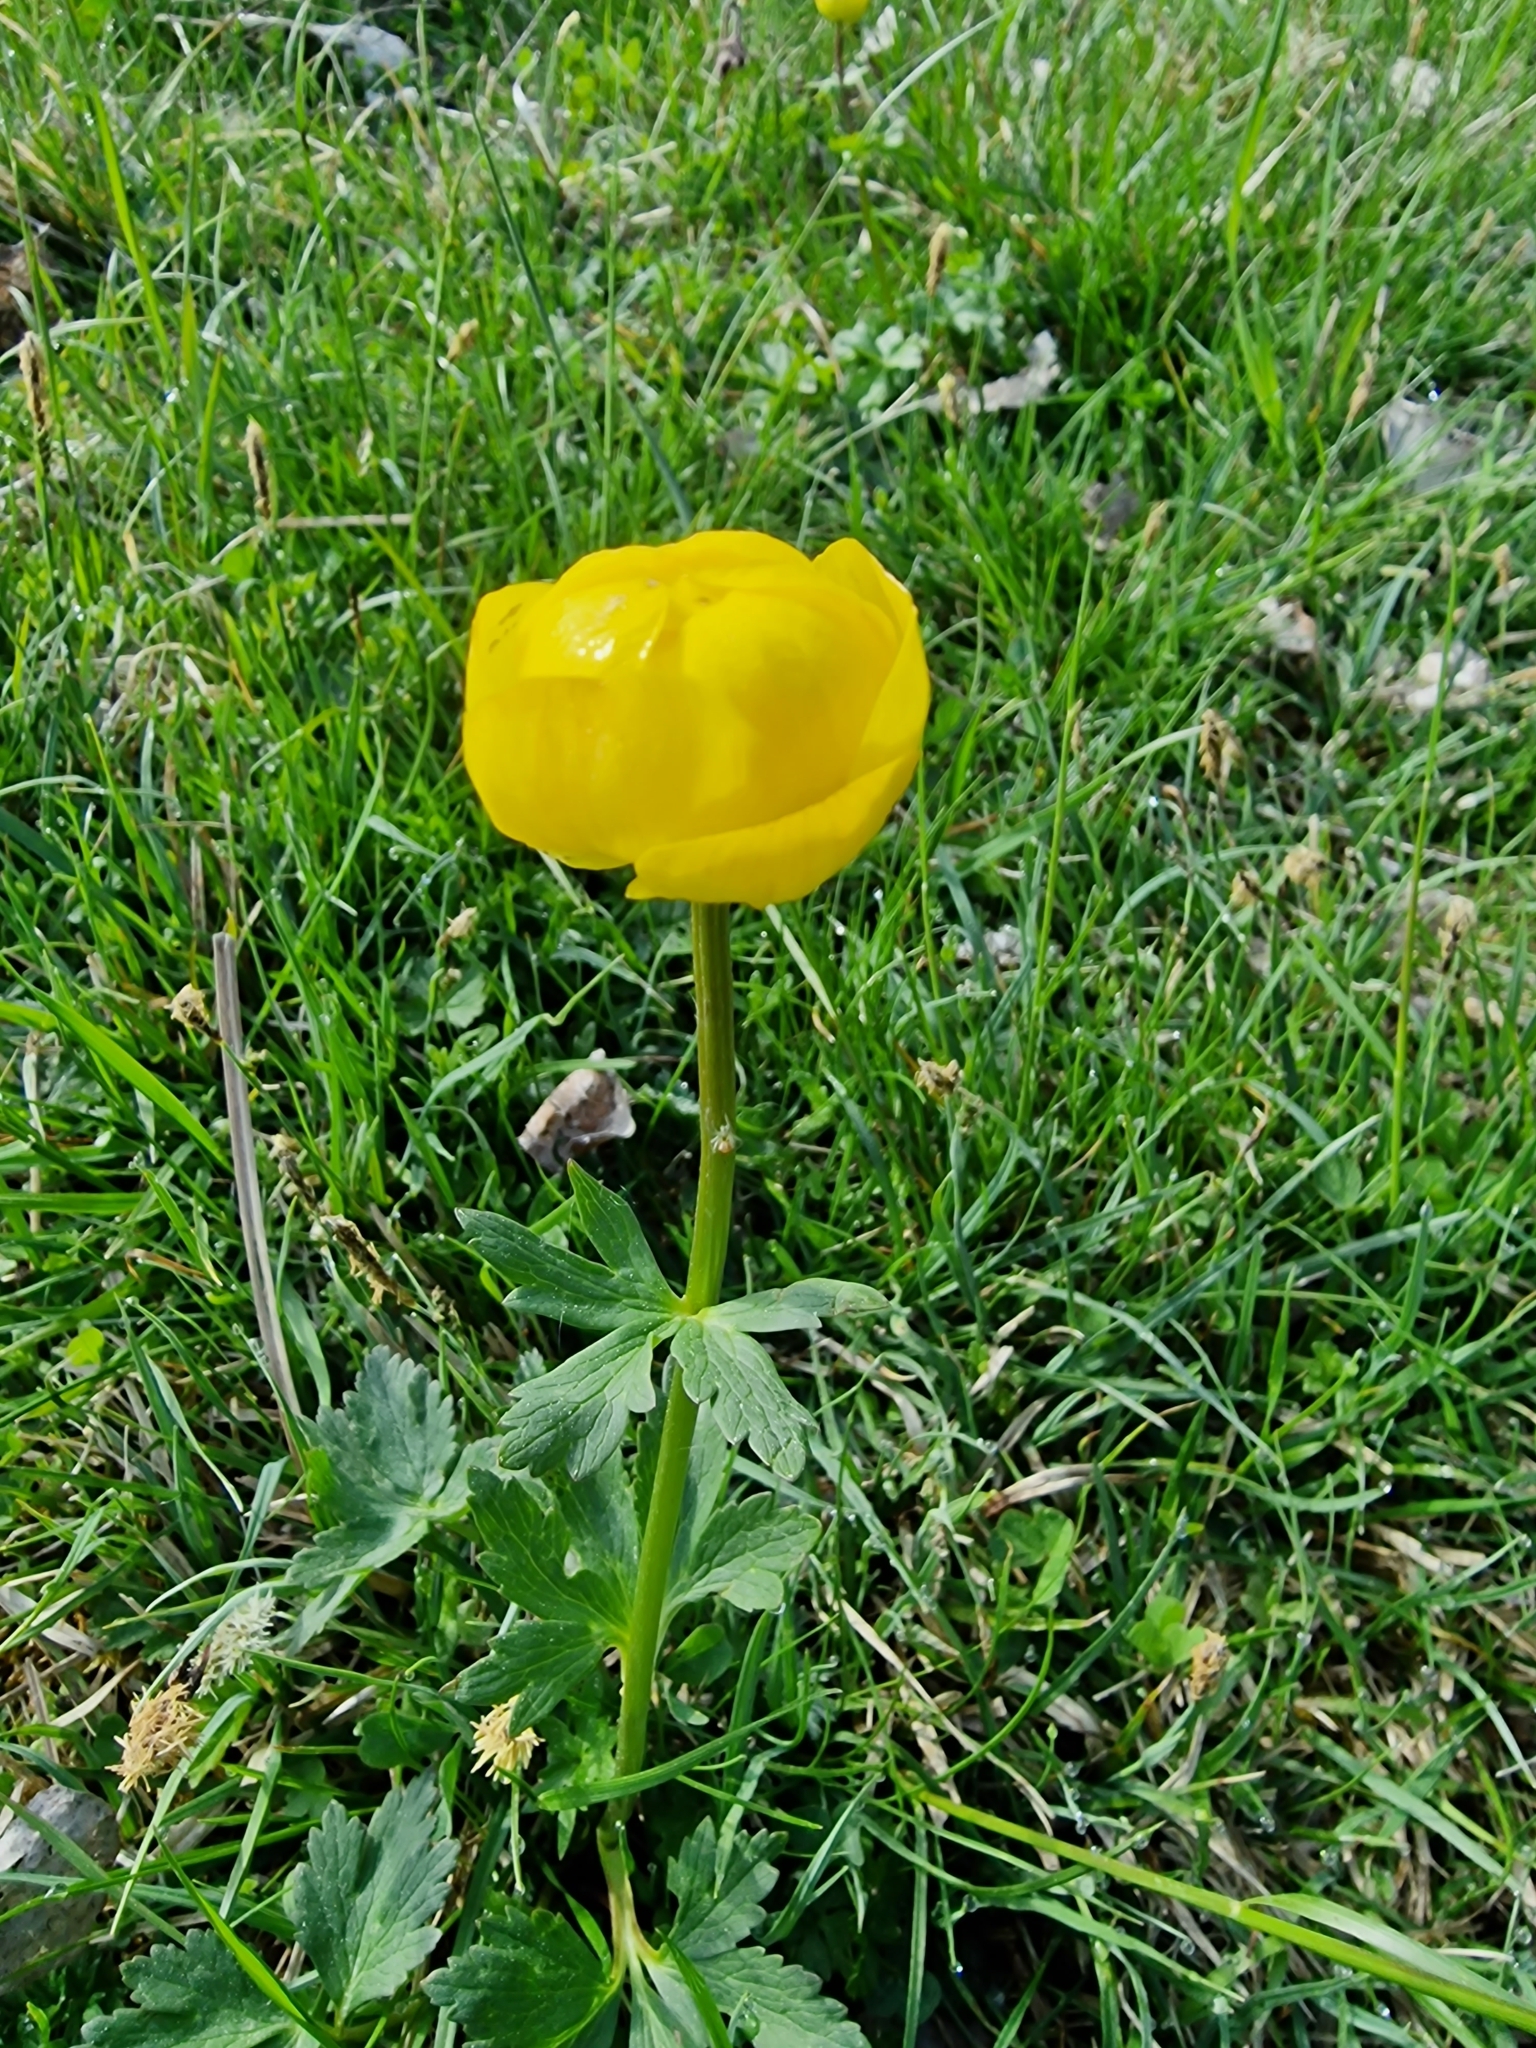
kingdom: Plantae
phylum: Tracheophyta
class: Magnoliopsida
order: Ranunculales
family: Ranunculaceae
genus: Trollius
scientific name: Trollius europaeus
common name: European globeflower
